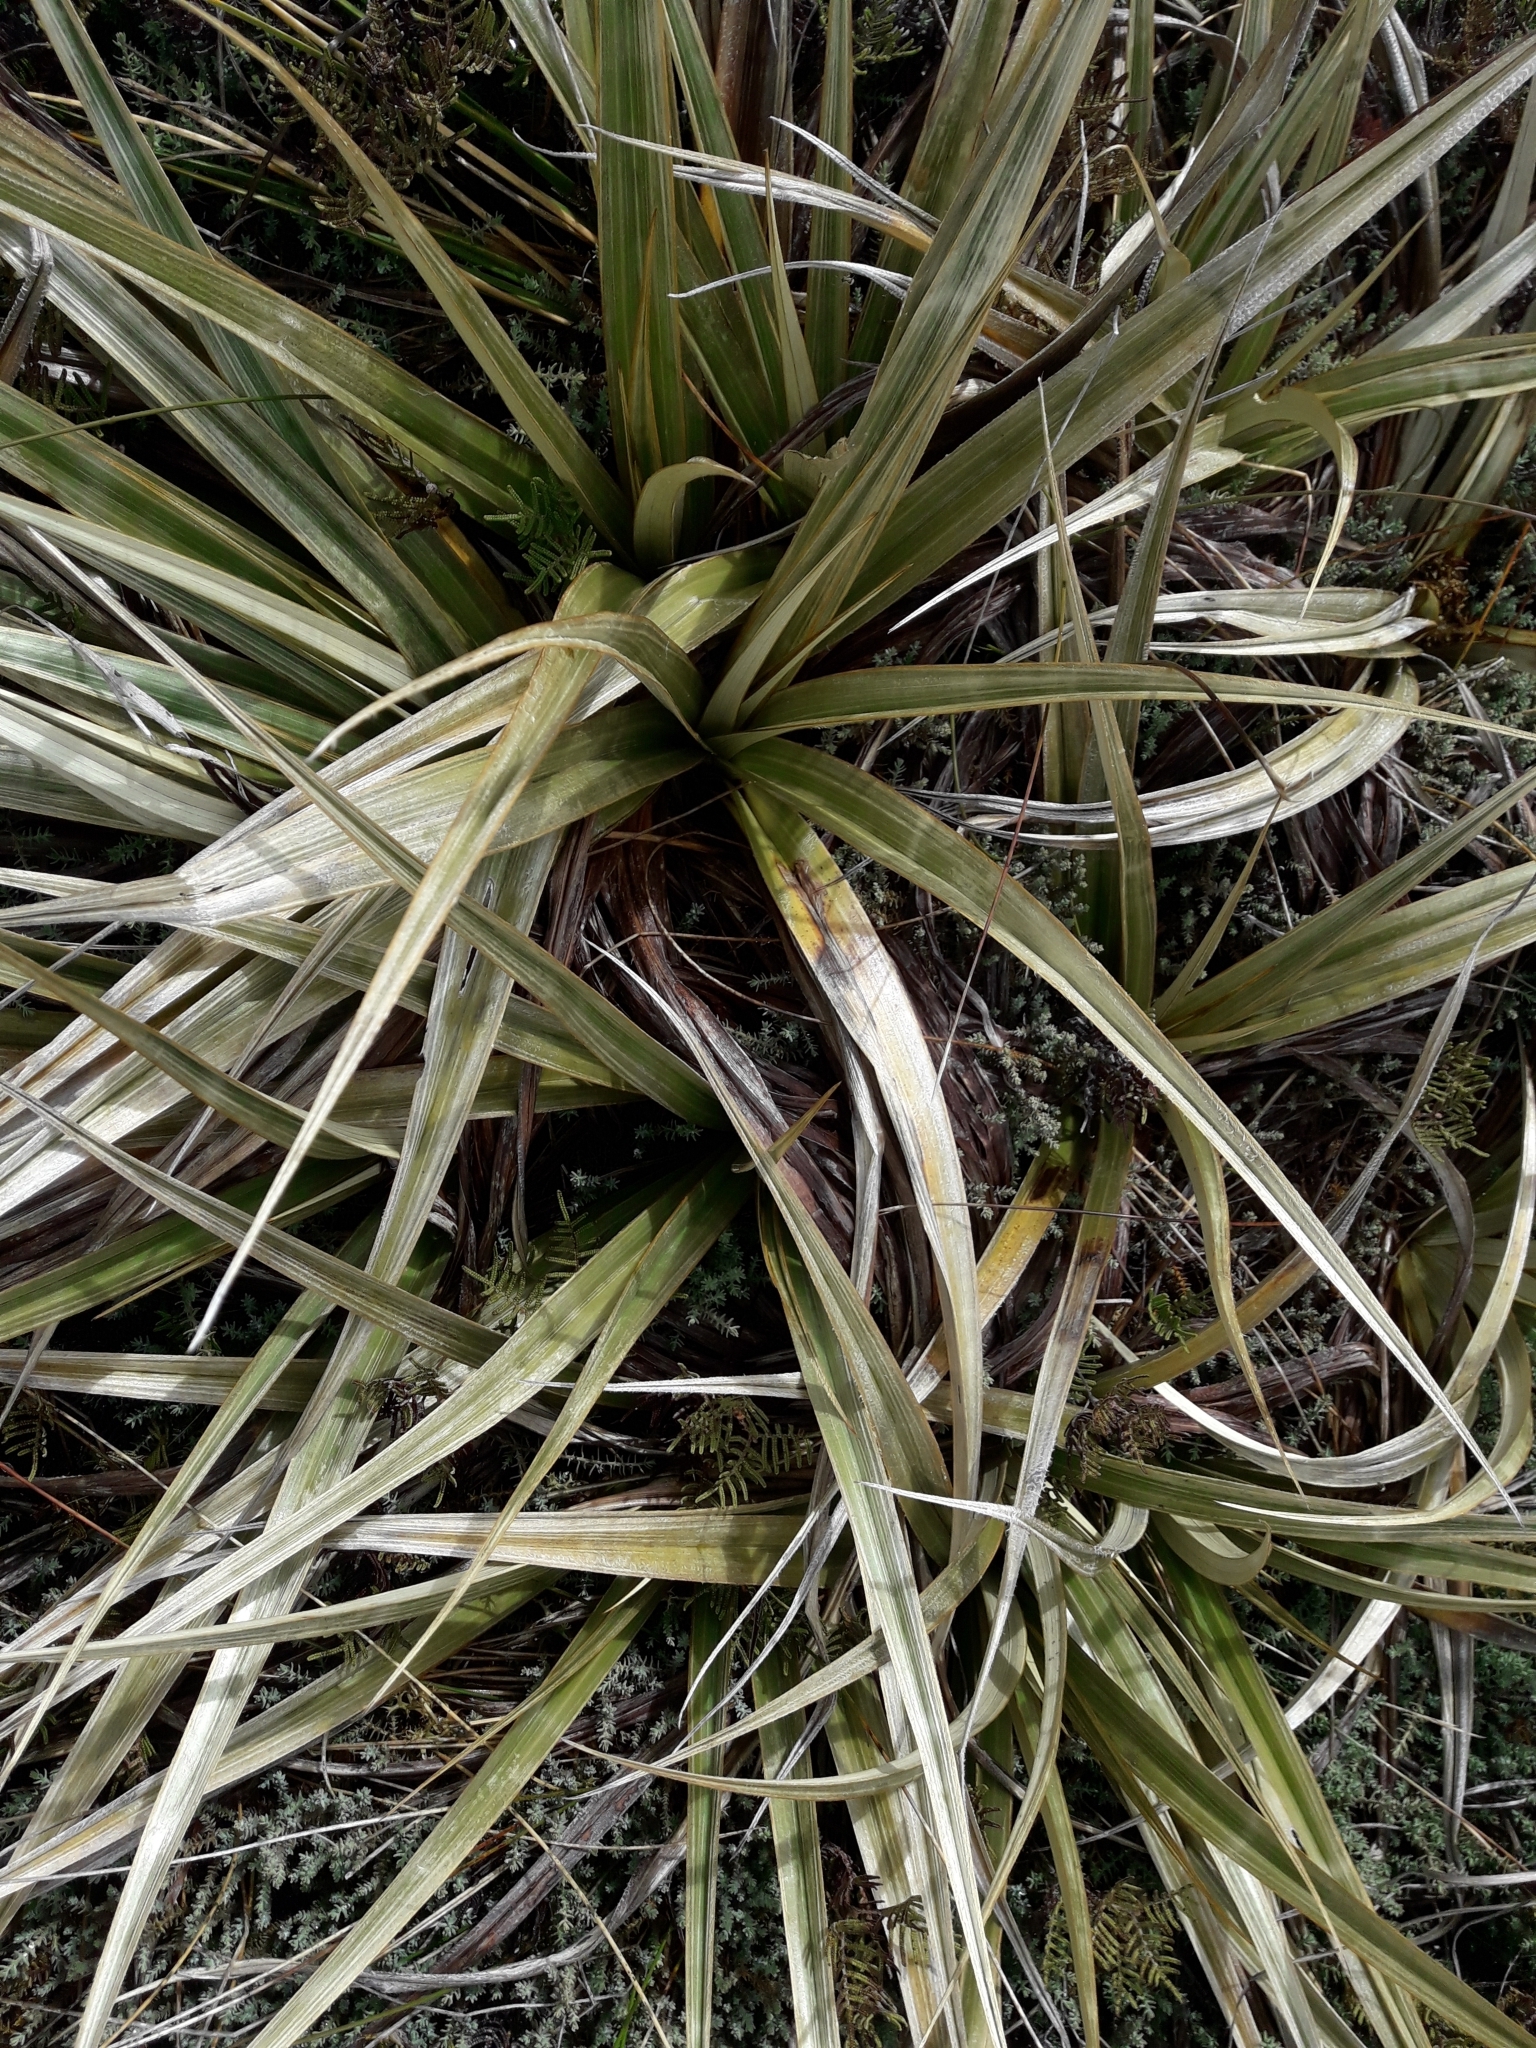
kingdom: Plantae
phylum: Tracheophyta
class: Liliopsida
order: Asparagales
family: Asteliaceae
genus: Astelia
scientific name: Astelia nervosa
